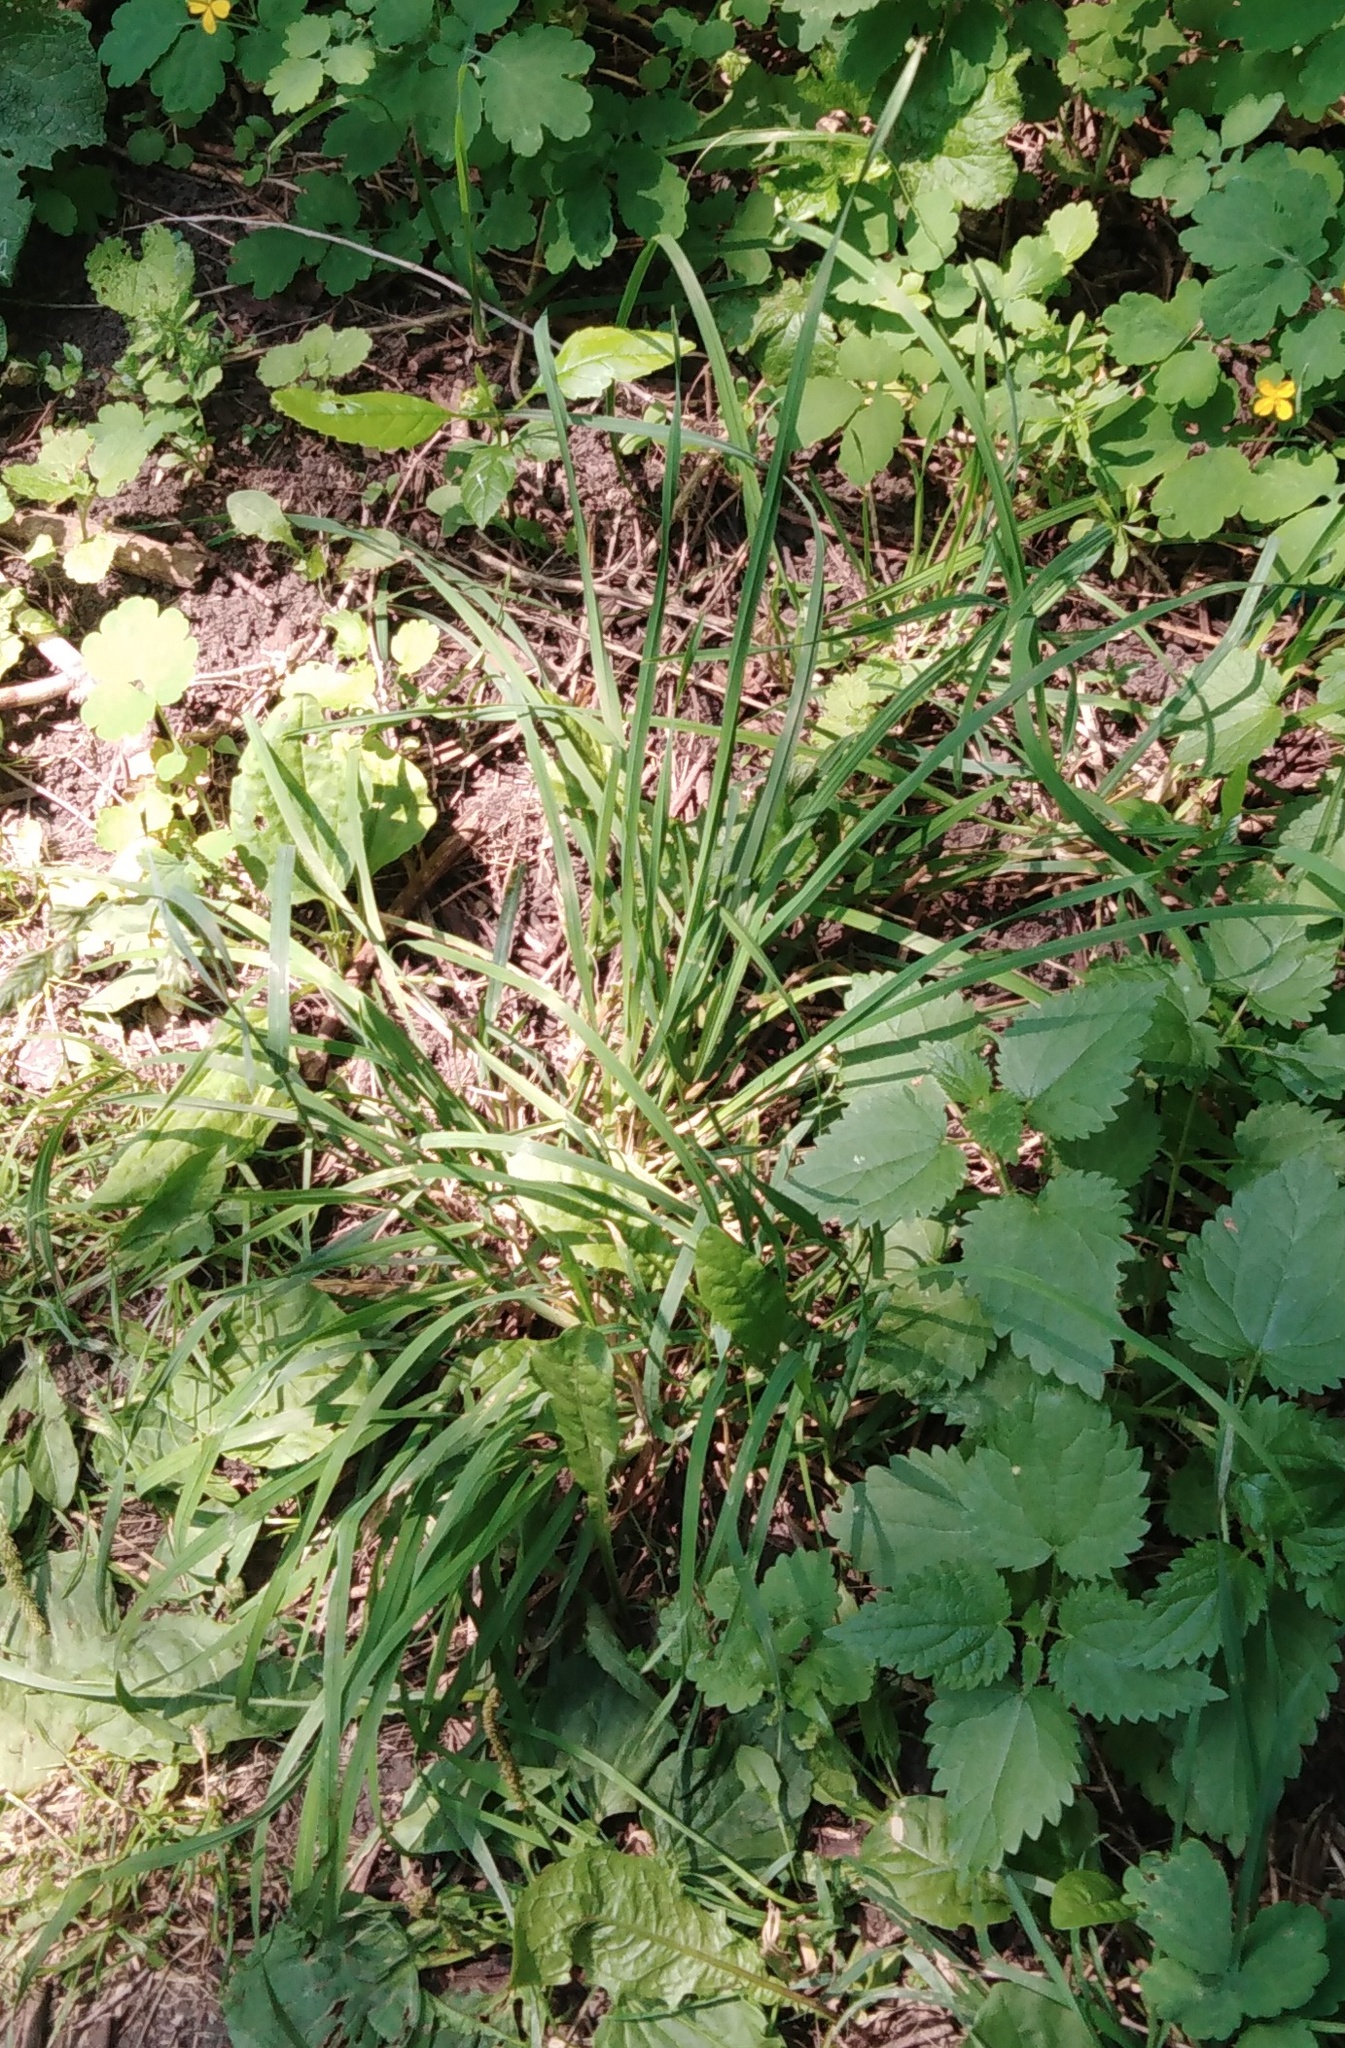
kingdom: Plantae
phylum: Tracheophyta
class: Liliopsida
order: Poales
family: Poaceae
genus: Dactylis
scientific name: Dactylis glomerata
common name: Orchardgrass
